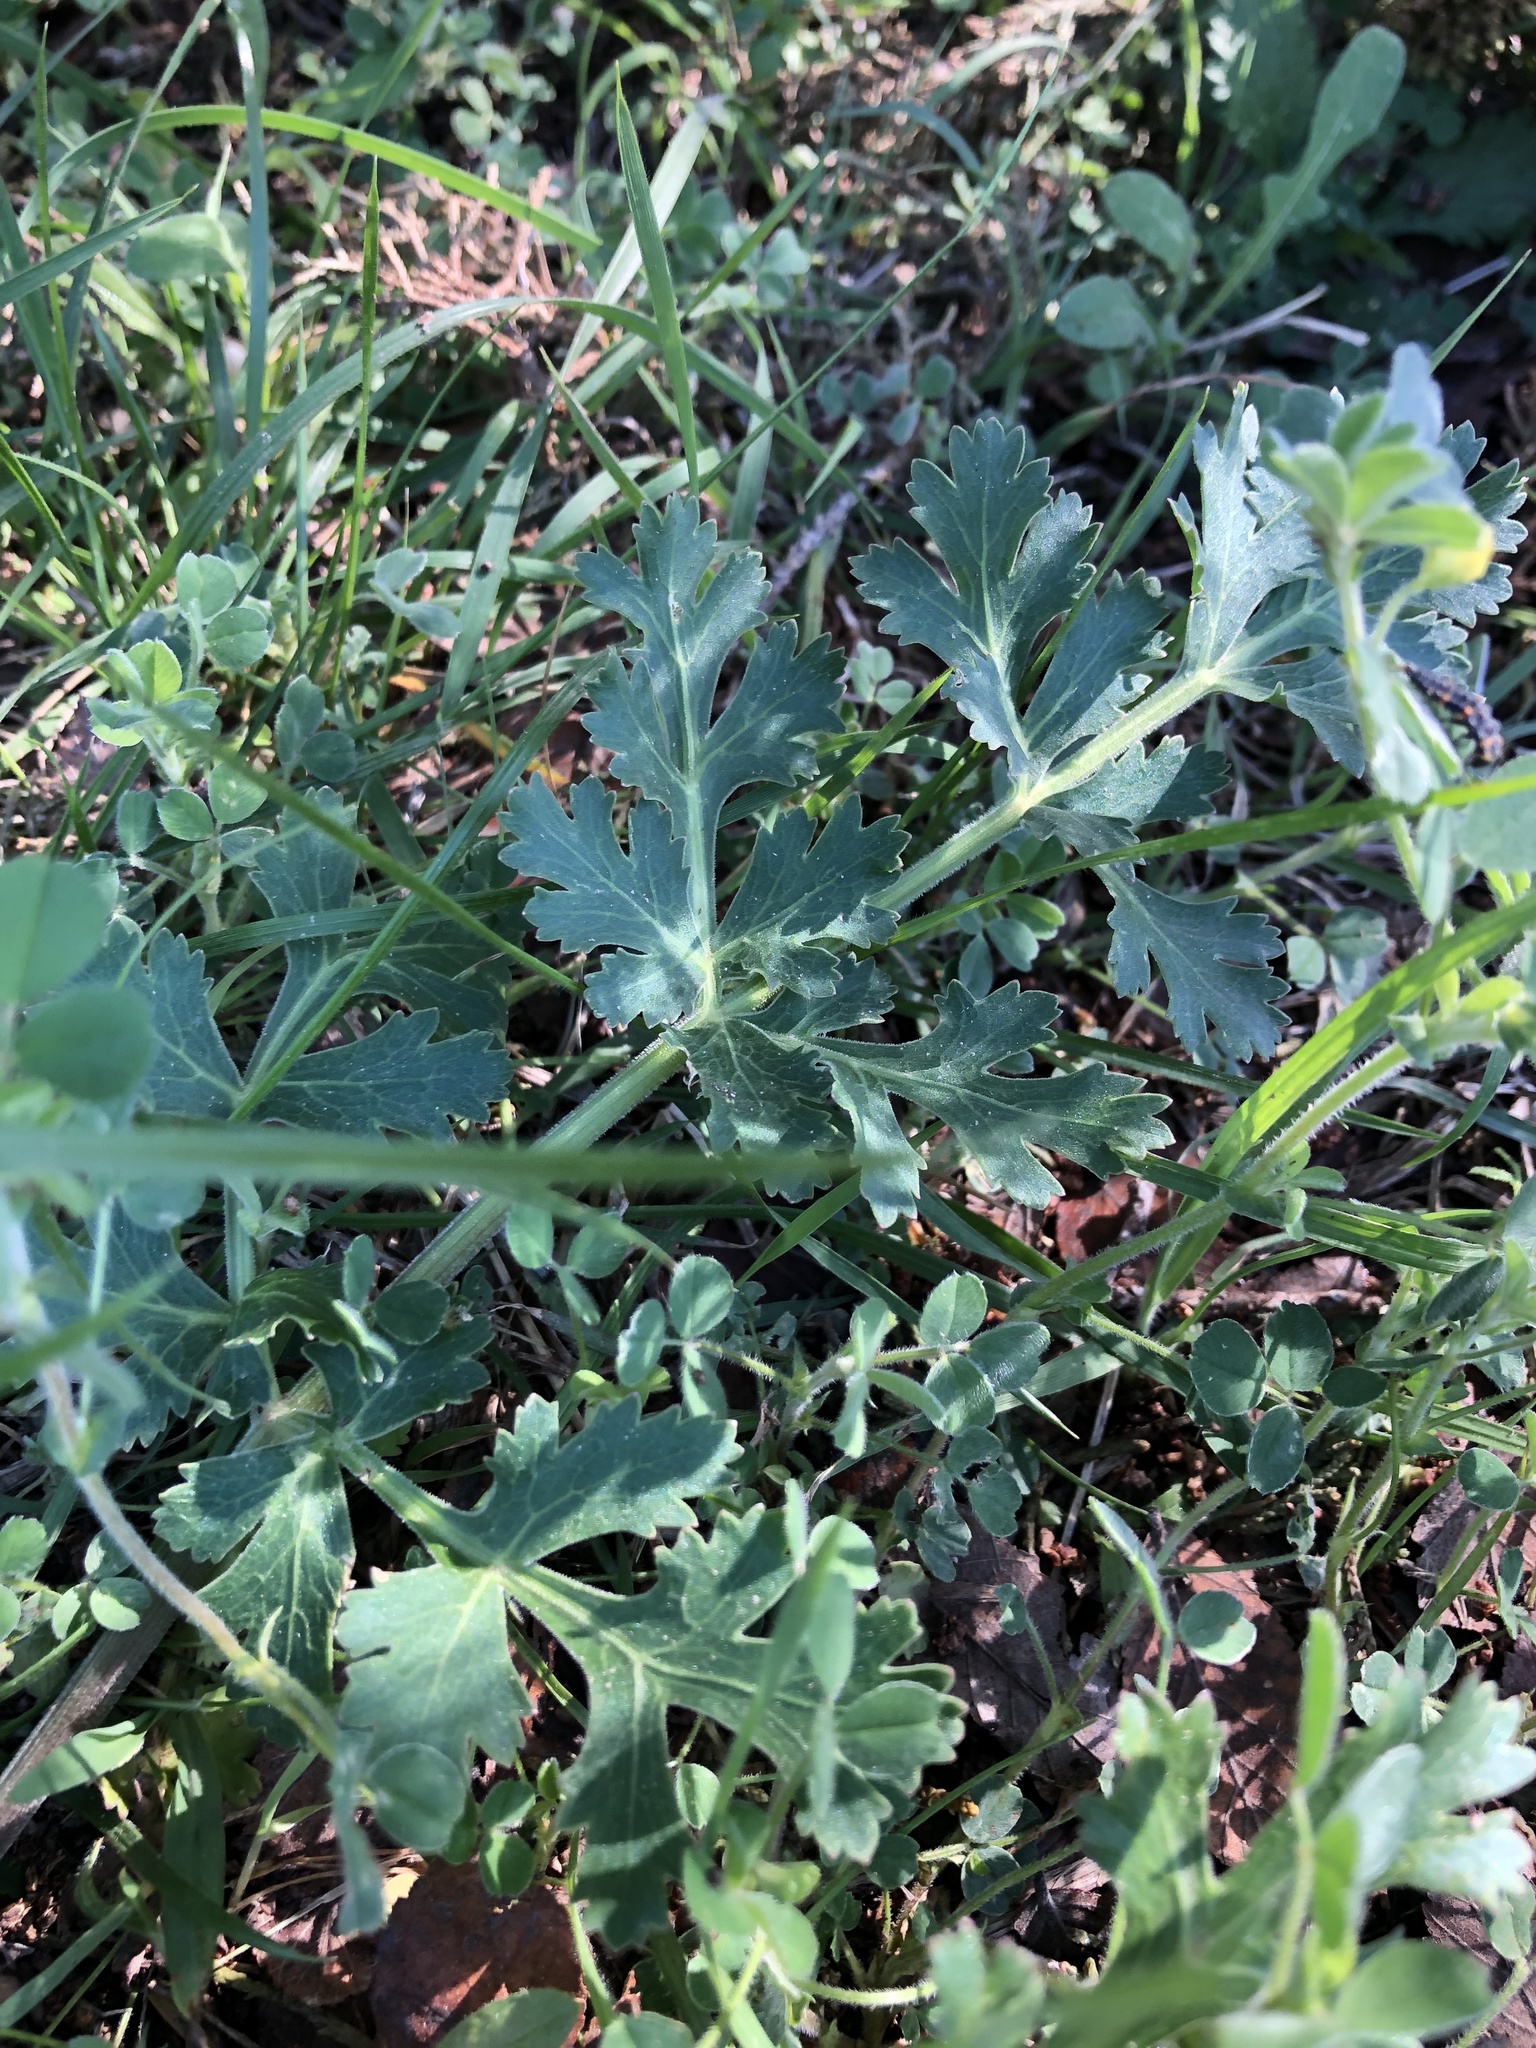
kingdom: Plantae
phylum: Tracheophyta
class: Magnoliopsida
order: Apiales
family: Apiaceae
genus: Polytaenia
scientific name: Polytaenia texana
